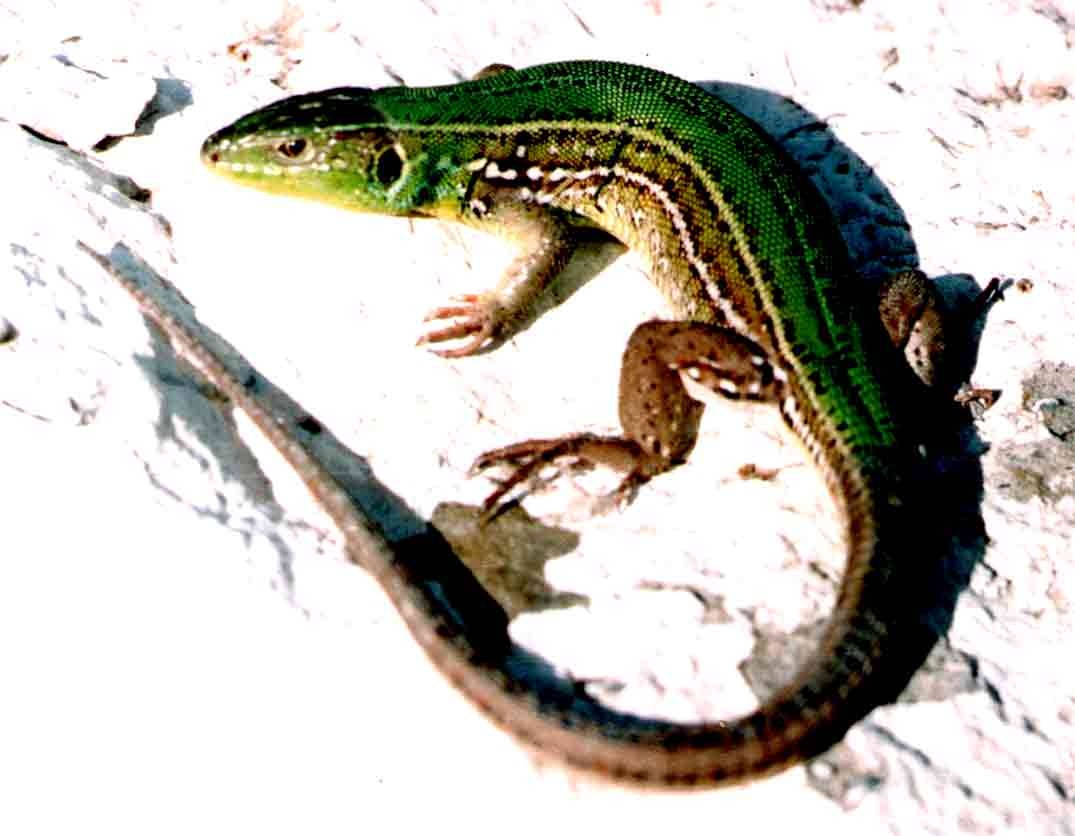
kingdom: Animalia
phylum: Chordata
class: Squamata
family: Lacertidae
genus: Lacerta
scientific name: Lacerta media
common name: Medium lizard
